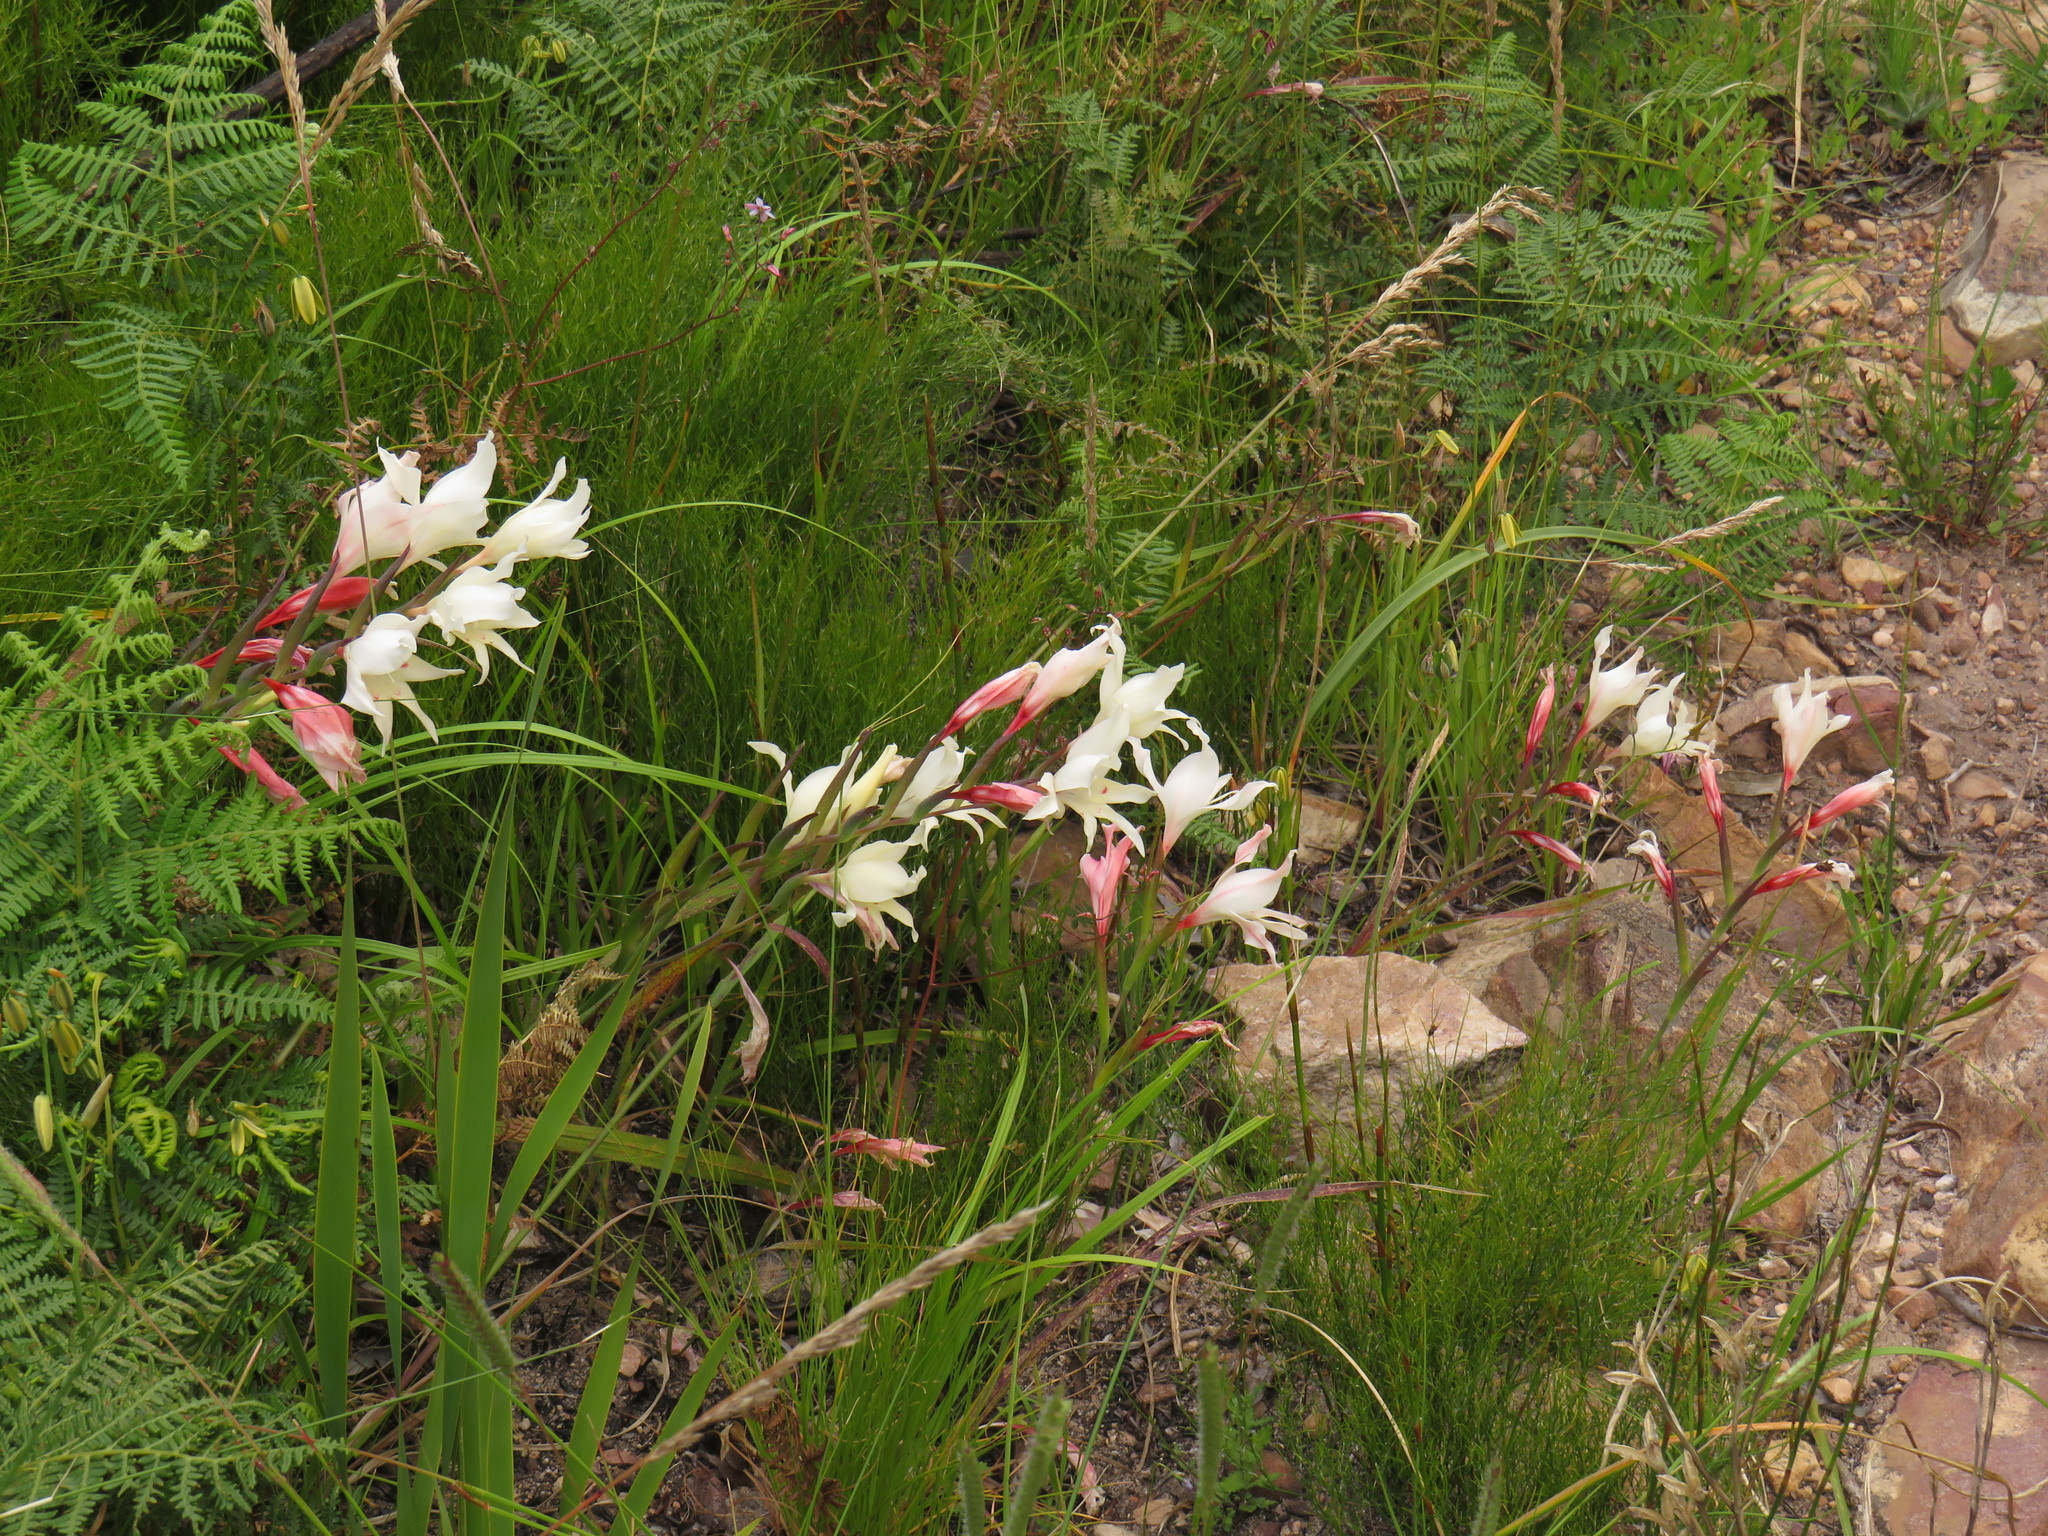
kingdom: Plantae
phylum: Tracheophyta
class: Liliopsida
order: Asparagales
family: Iridaceae
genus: Gladiolus
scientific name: Gladiolus carneus
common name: Painted-lady
